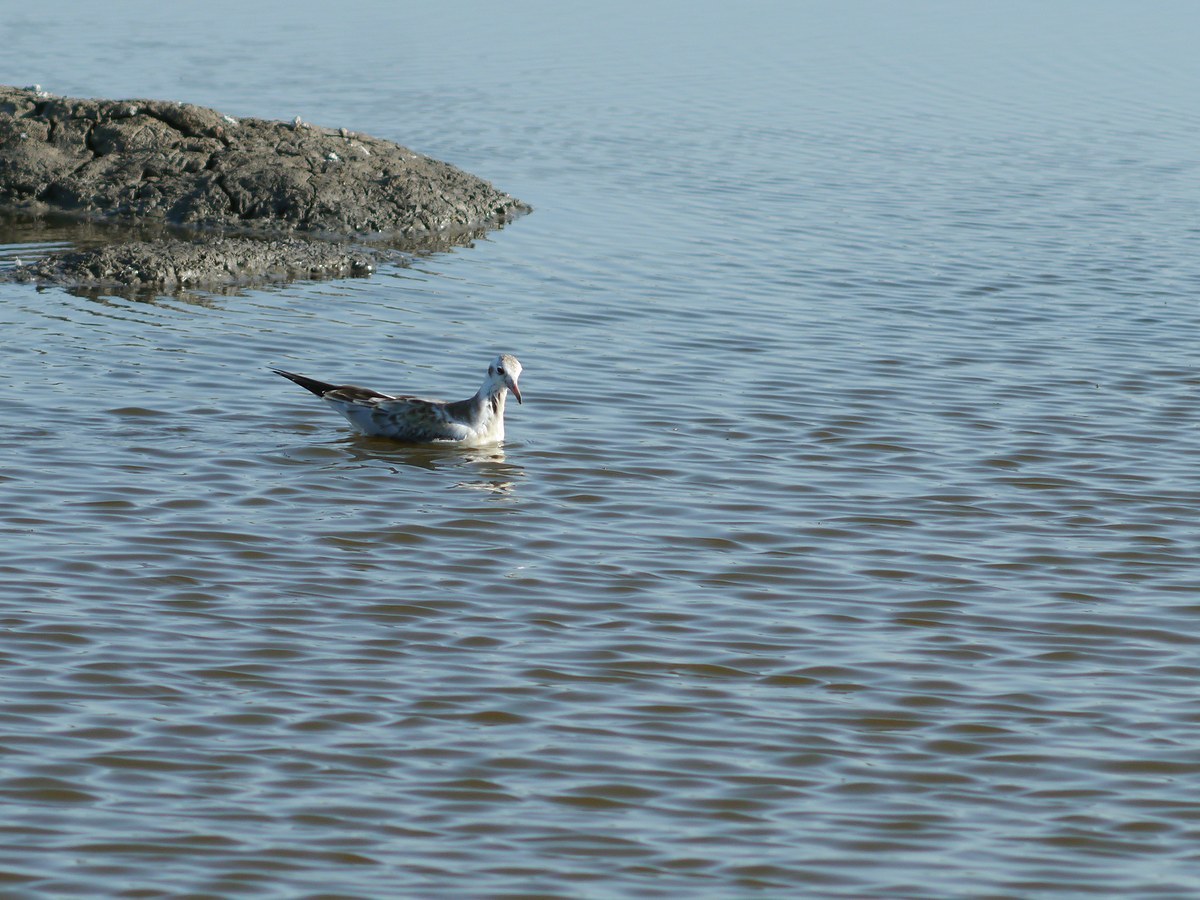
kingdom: Animalia
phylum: Chordata
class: Aves
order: Charadriiformes
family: Laridae
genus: Chroicocephalus
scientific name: Chroicocephalus ridibundus
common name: Black-headed gull
